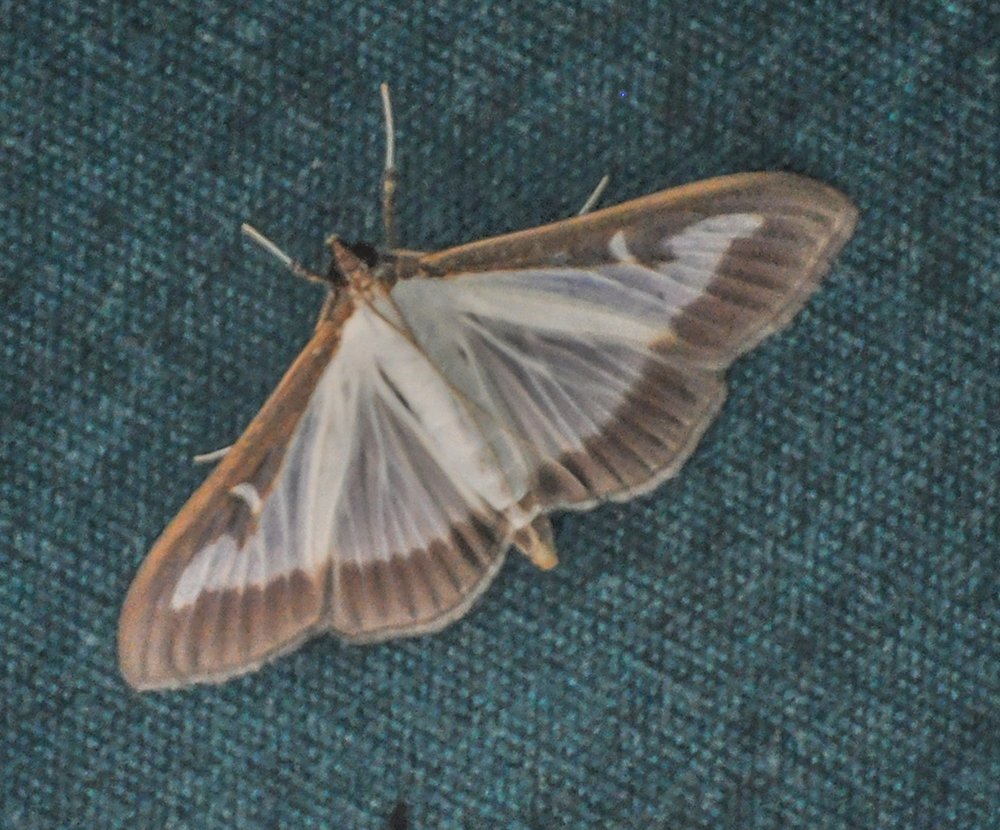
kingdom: Animalia
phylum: Arthropoda
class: Insecta
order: Lepidoptera
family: Crambidae
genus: Cydalima
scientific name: Cydalima perspectalis
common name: Box tree moth
